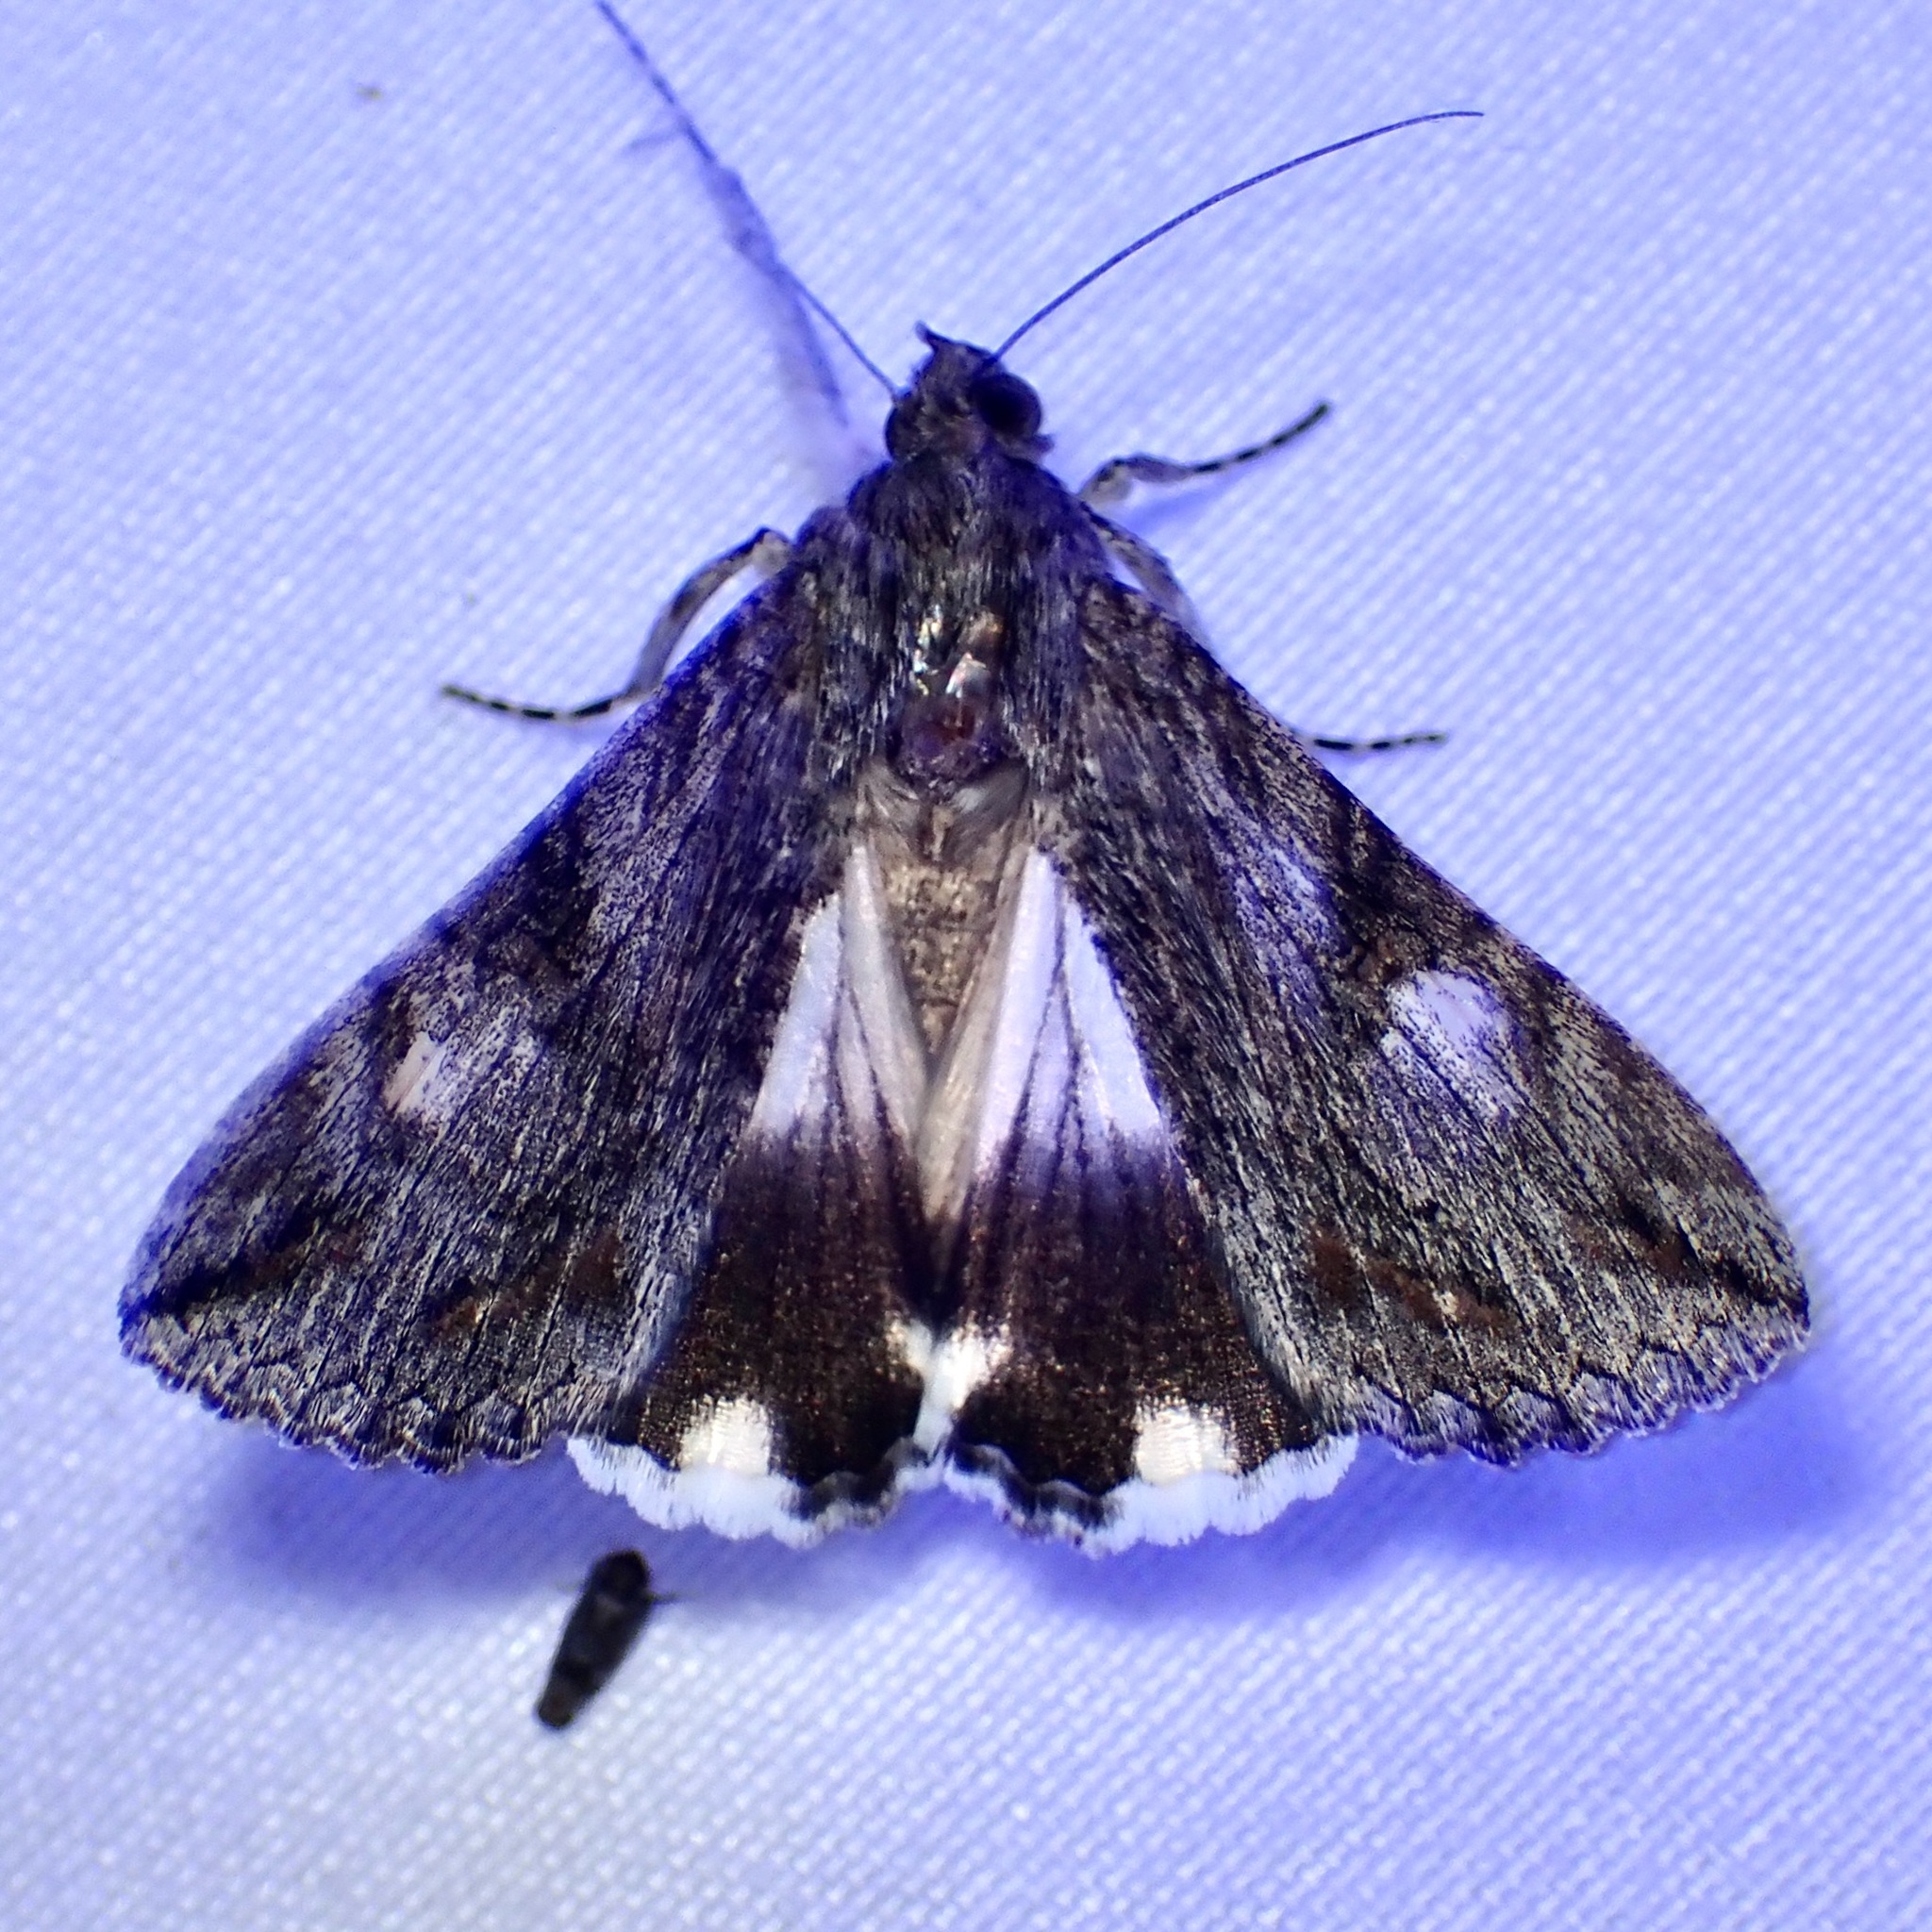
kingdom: Animalia
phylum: Arthropoda
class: Insecta
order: Lepidoptera
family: Erebidae
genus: Melipotis
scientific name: Melipotis jucunda
